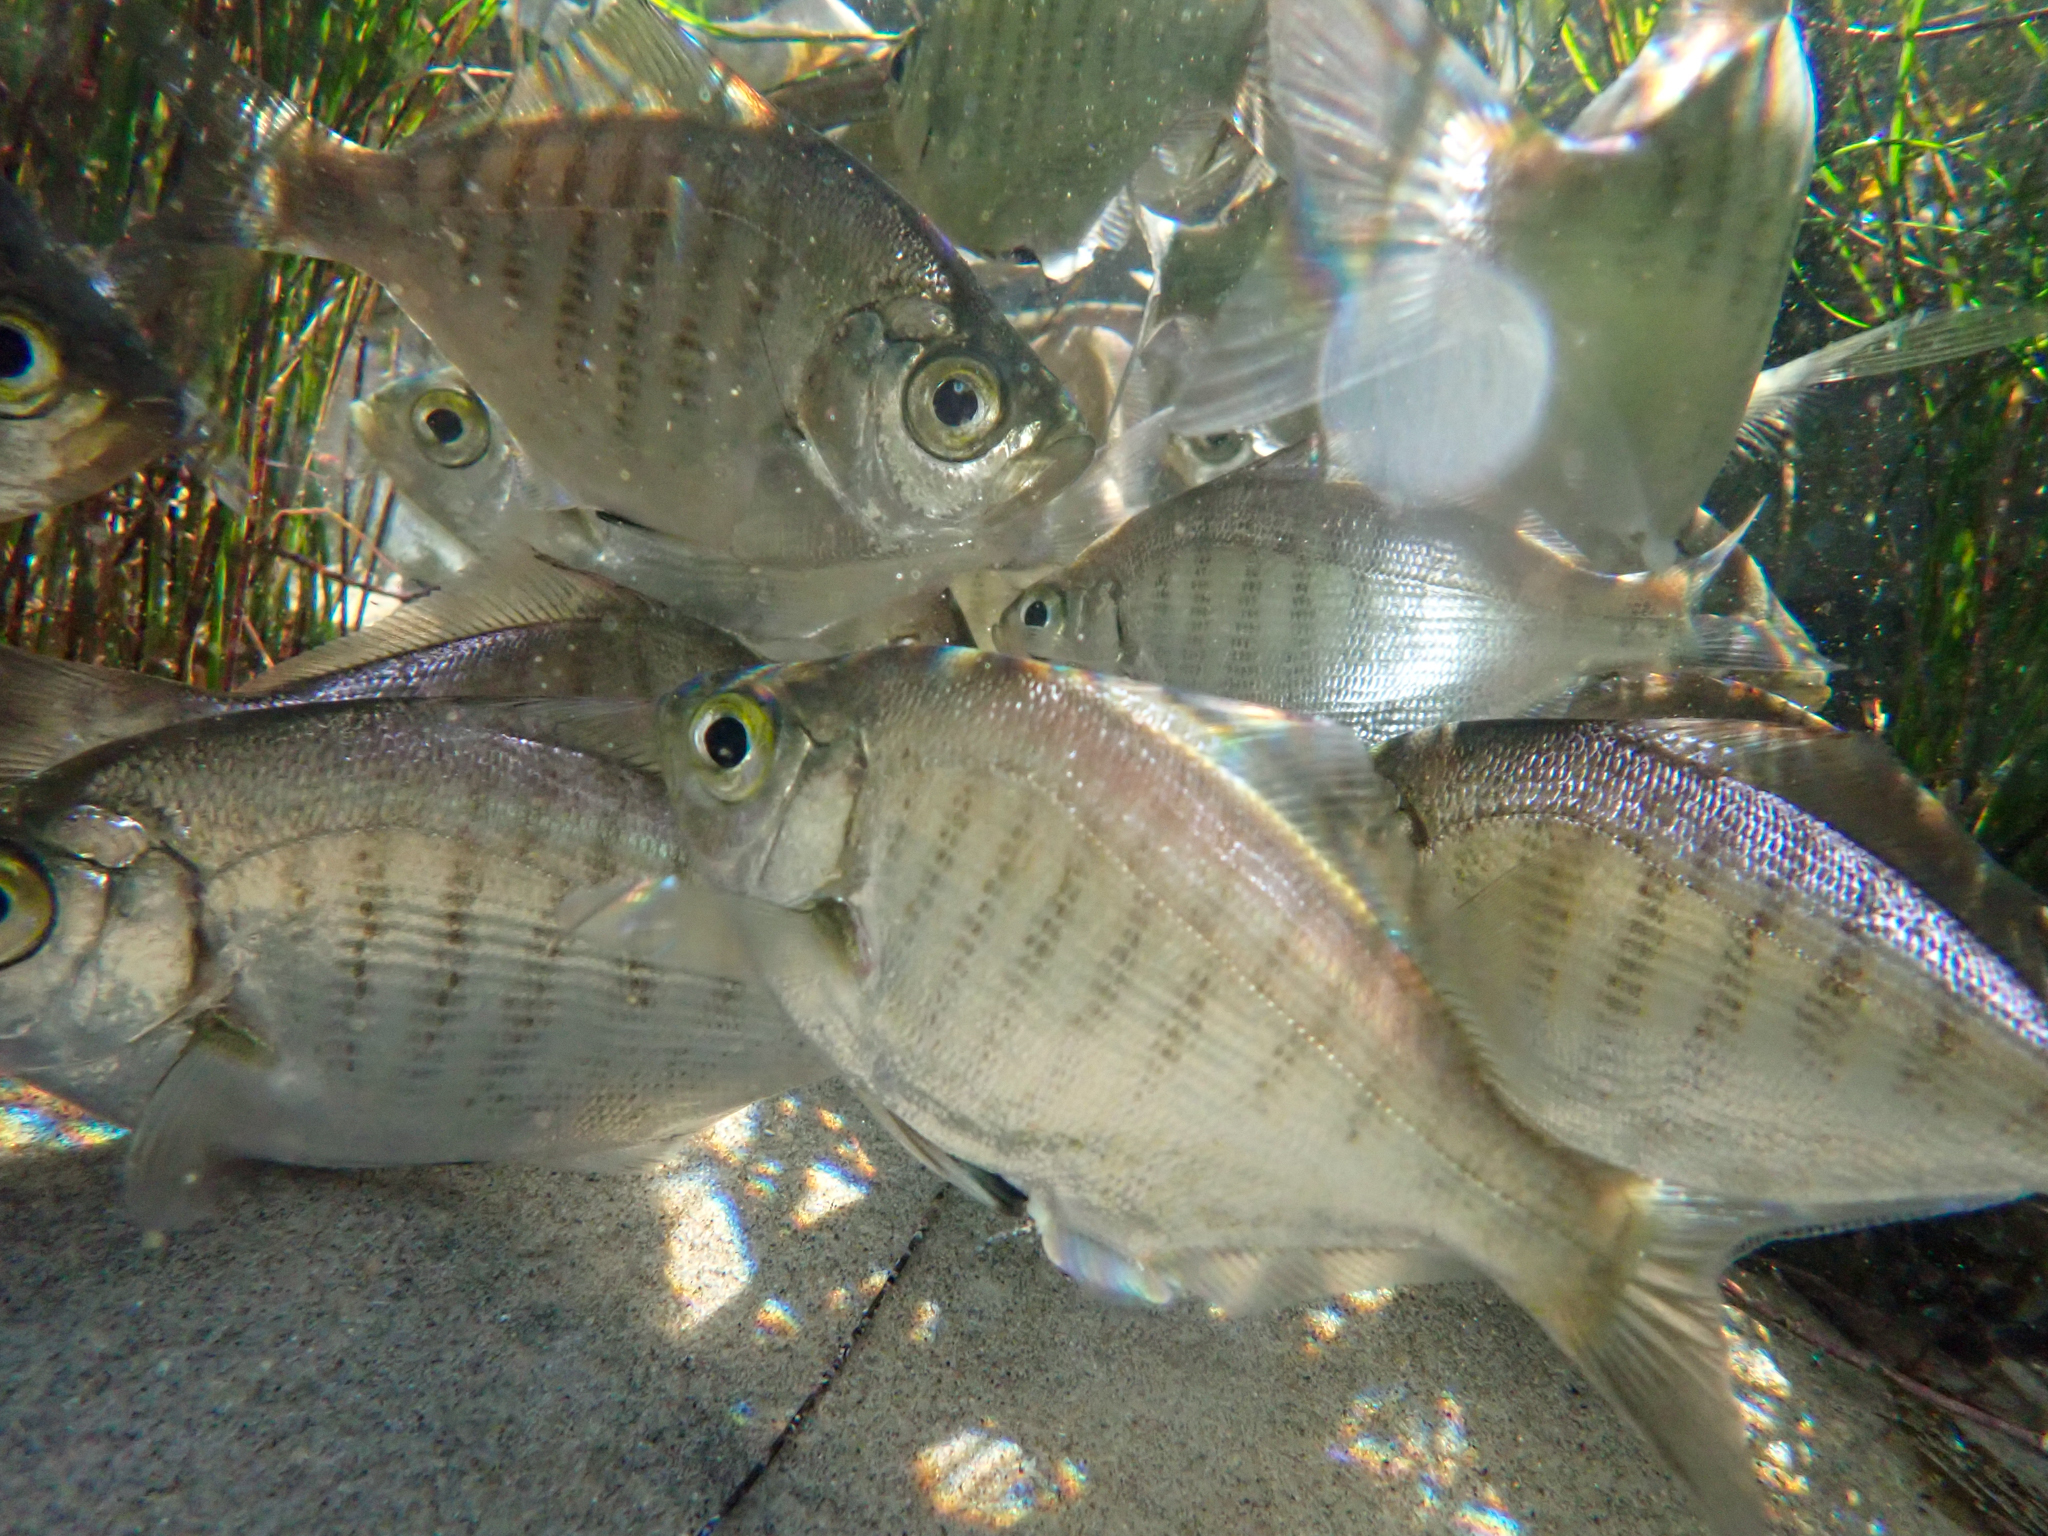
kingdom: Animalia
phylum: Chordata
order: Perciformes
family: Embiotocidae
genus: Hyperprosopon
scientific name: Hyperprosopon argenteum
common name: Walleye surfperch
